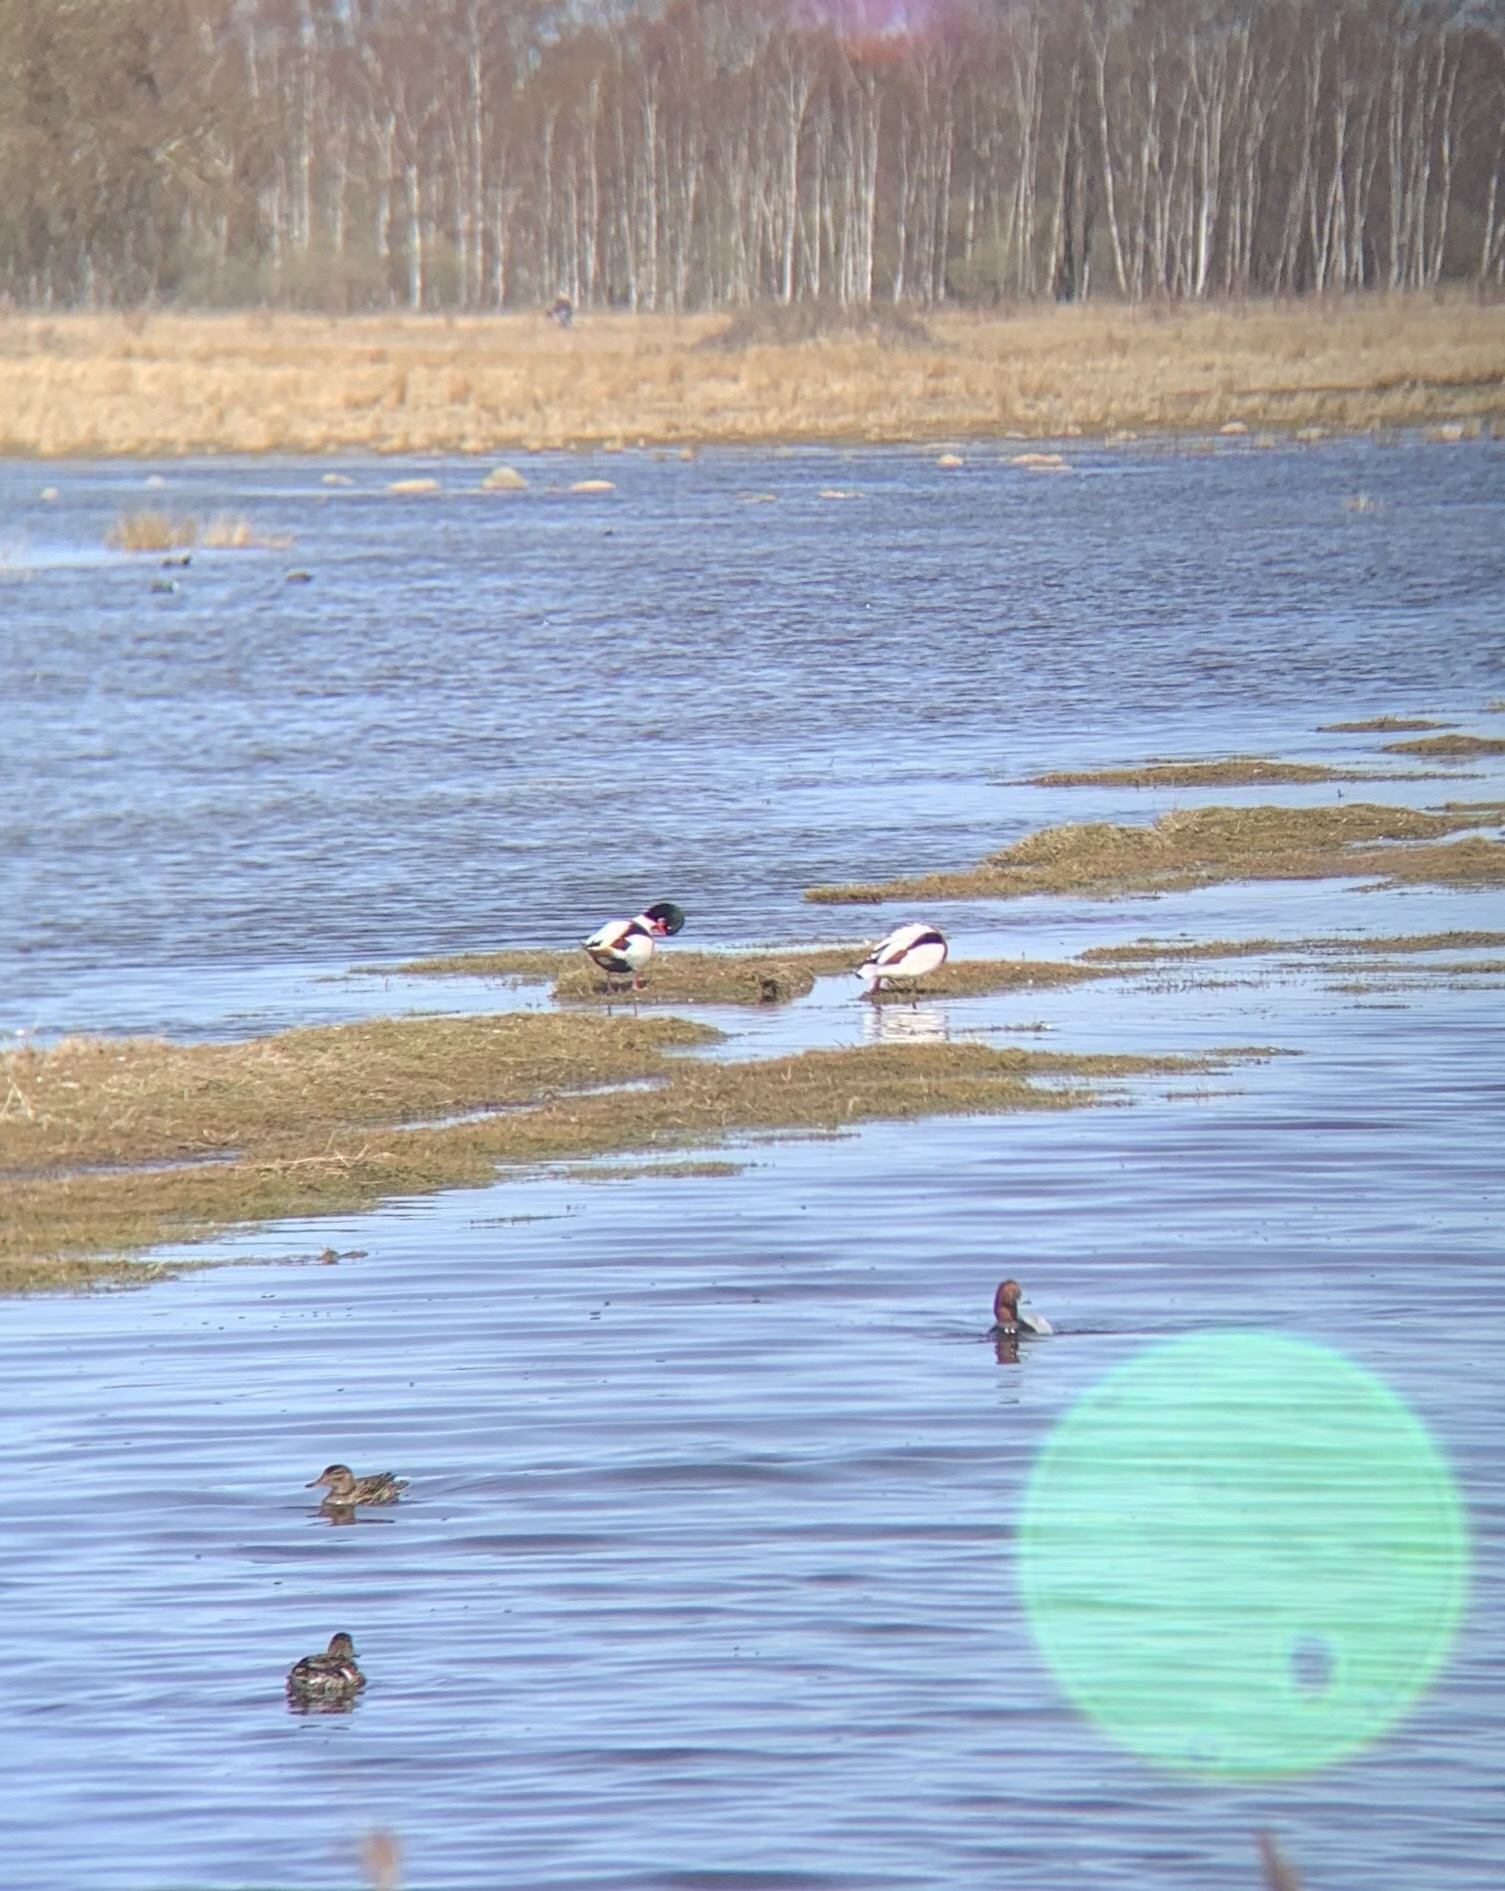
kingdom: Animalia
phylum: Chordata
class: Aves
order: Anseriformes
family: Anatidae
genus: Tadorna
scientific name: Tadorna tadorna
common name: Common shelduck
